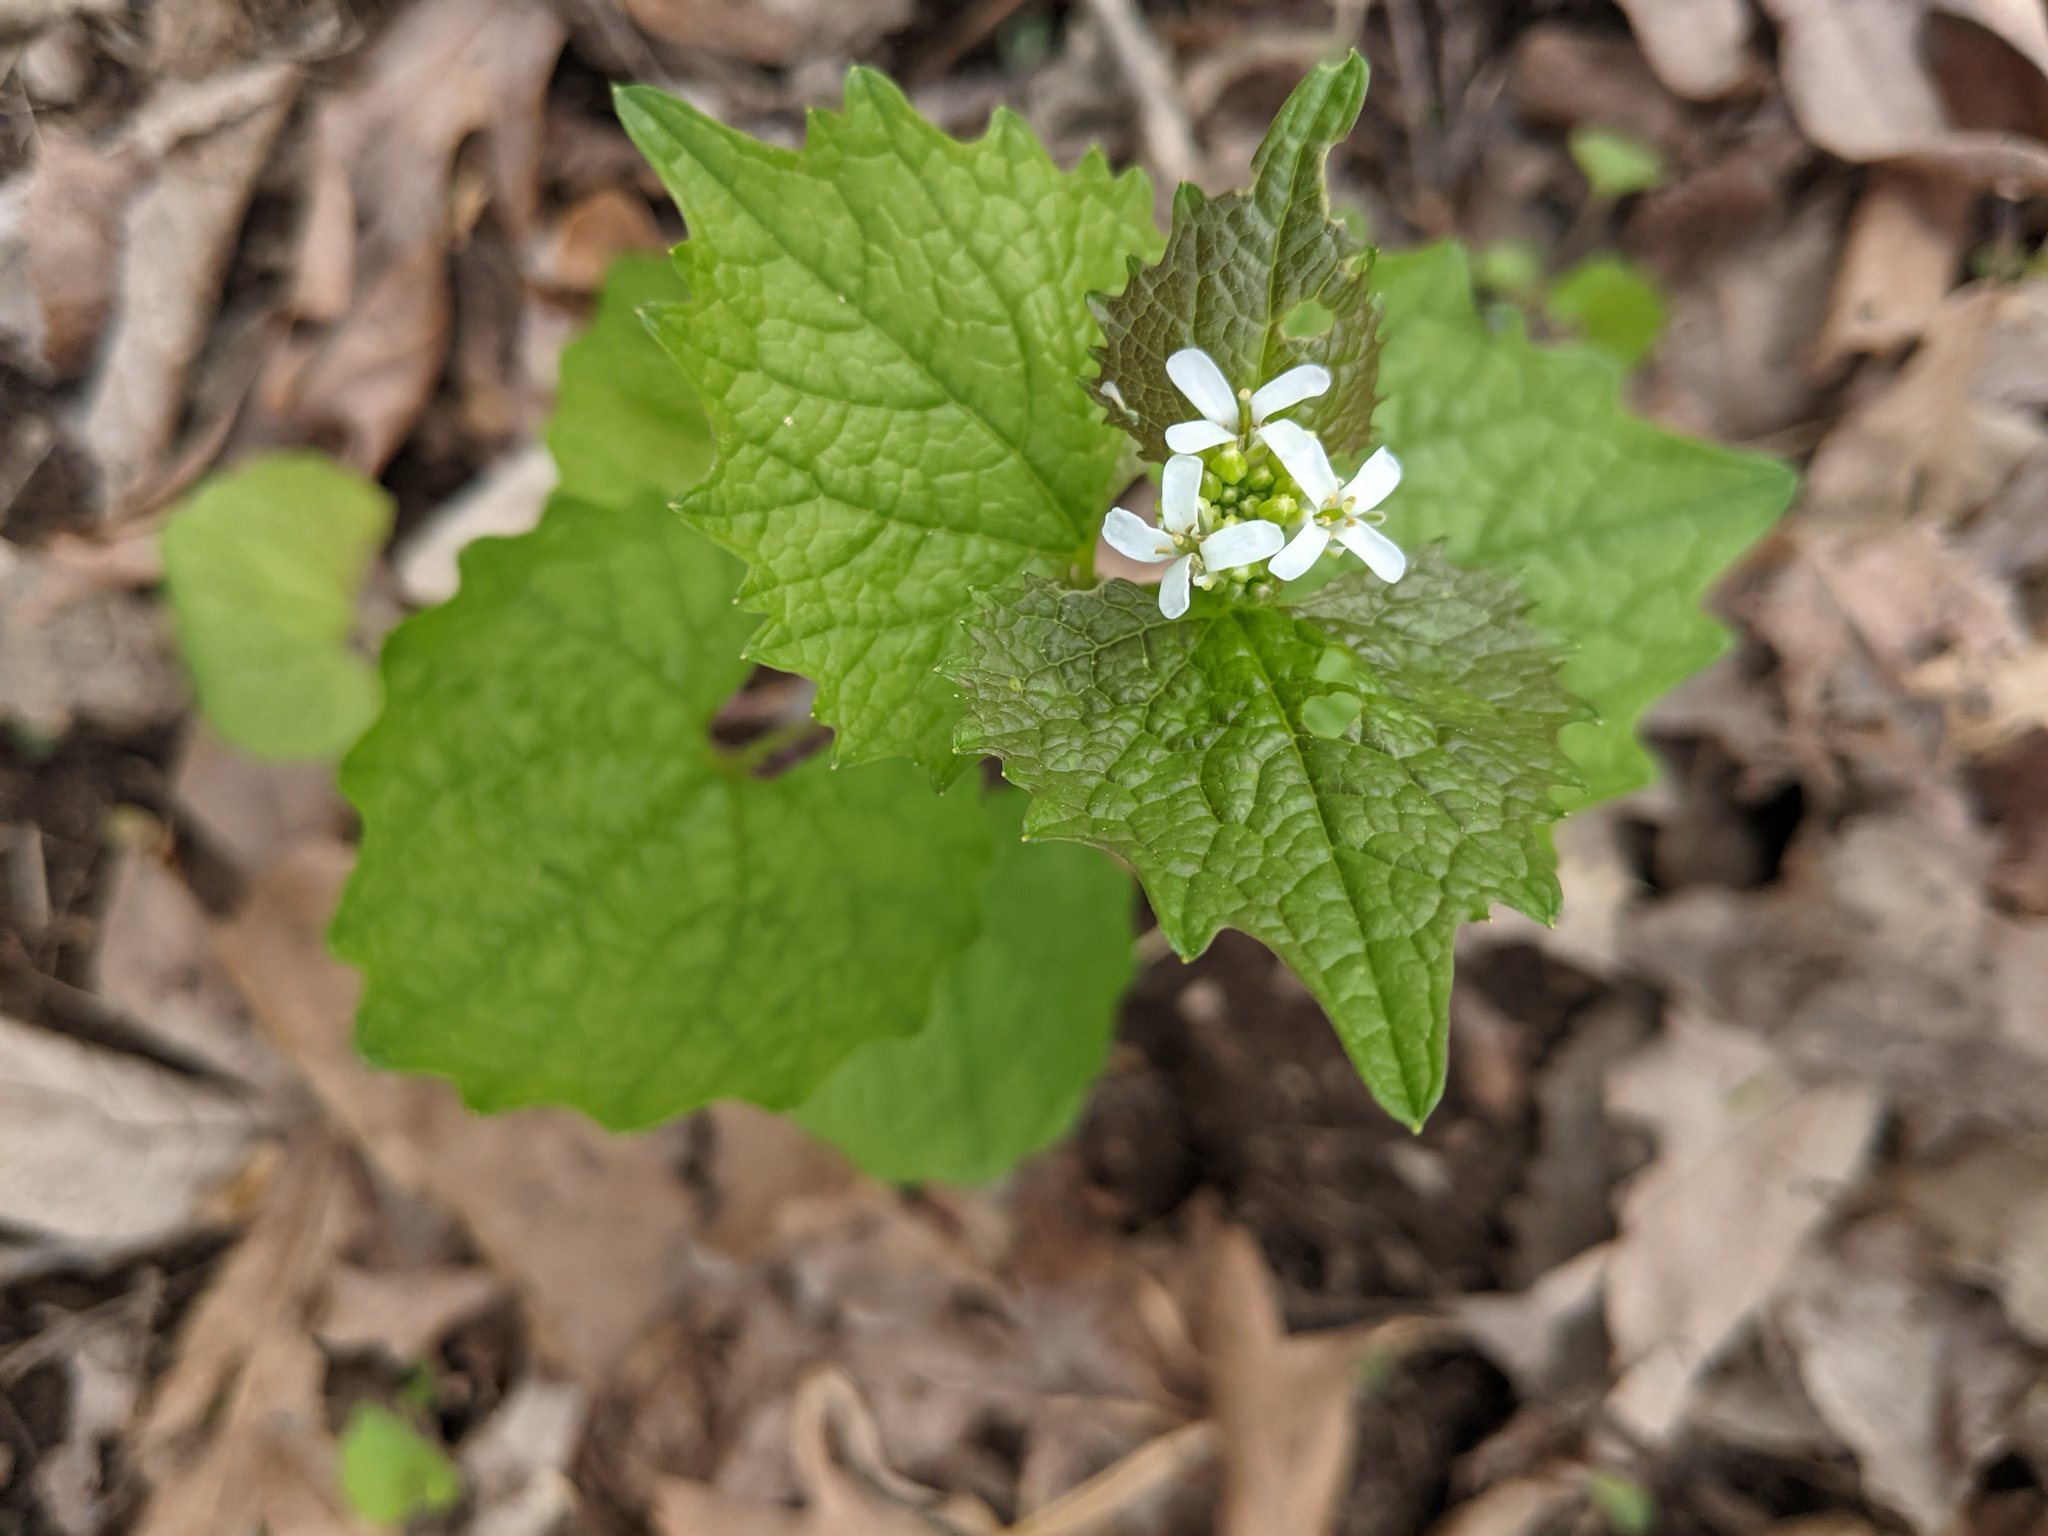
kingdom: Plantae
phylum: Tracheophyta
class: Magnoliopsida
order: Brassicales
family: Brassicaceae
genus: Alliaria
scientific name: Alliaria petiolata
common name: Garlic mustard
